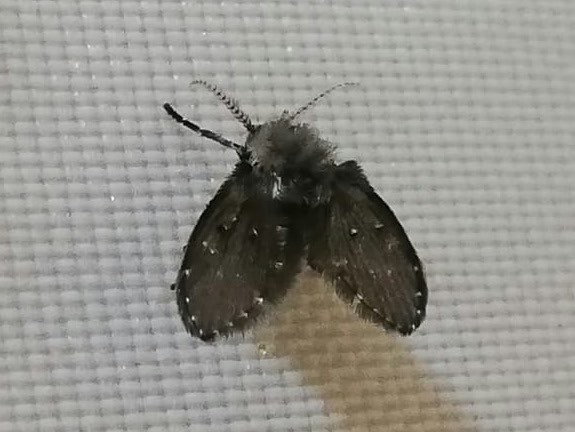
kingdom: Animalia
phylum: Arthropoda
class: Insecta
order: Diptera
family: Psychodidae
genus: Clogmia
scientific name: Clogmia albipunctatus
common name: White-spotted moth fly
